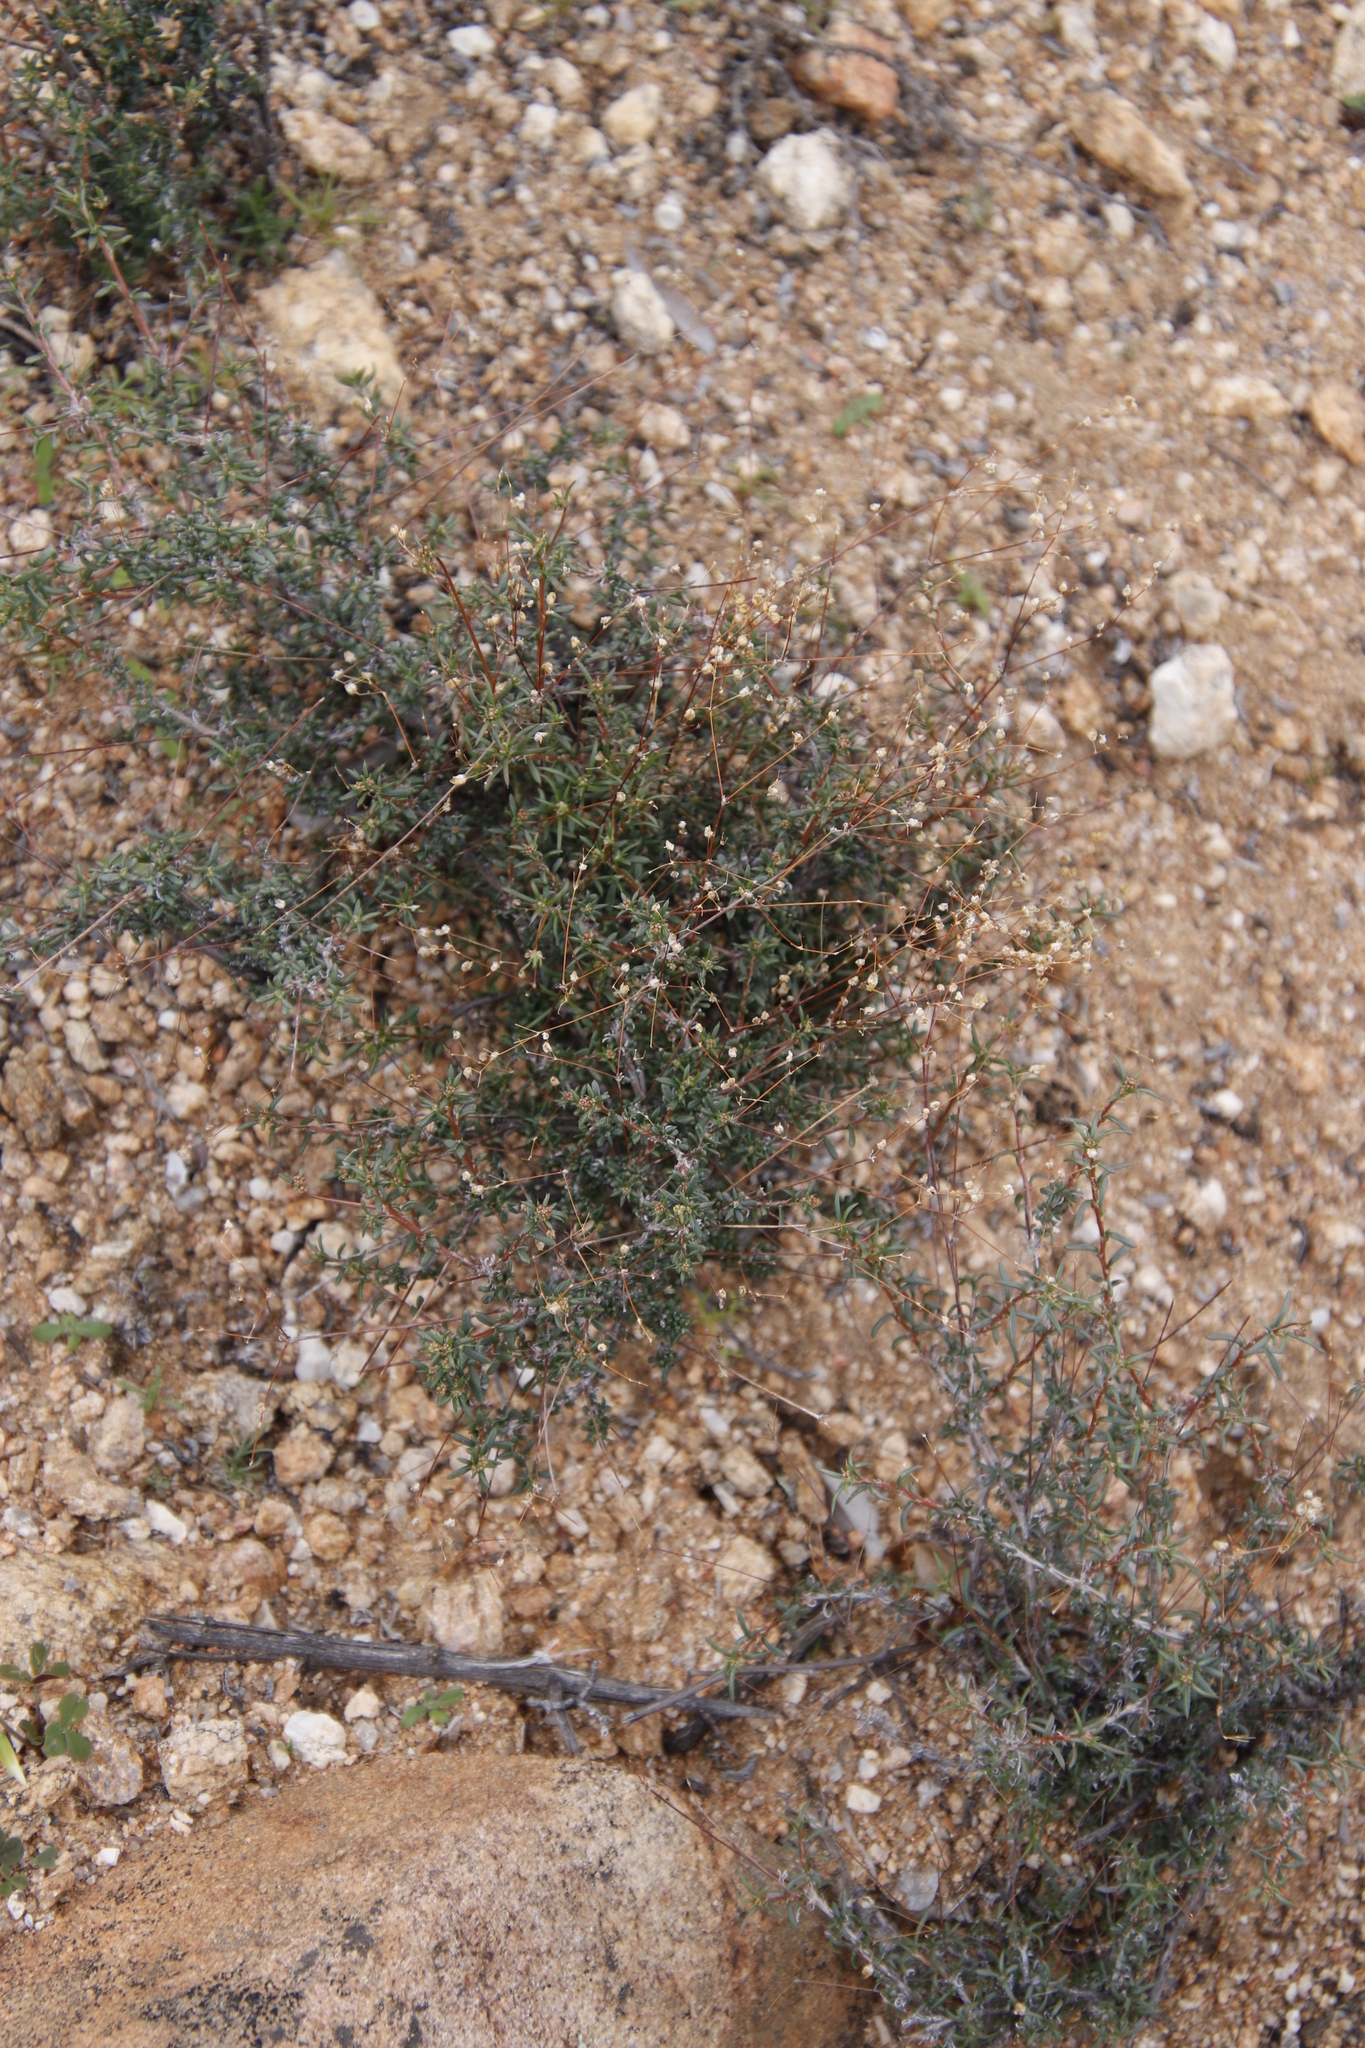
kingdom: Plantae
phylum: Tracheophyta
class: Magnoliopsida
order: Caryophyllales
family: Molluginaceae
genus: Pharnaceum
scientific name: Pharnaceum albens
